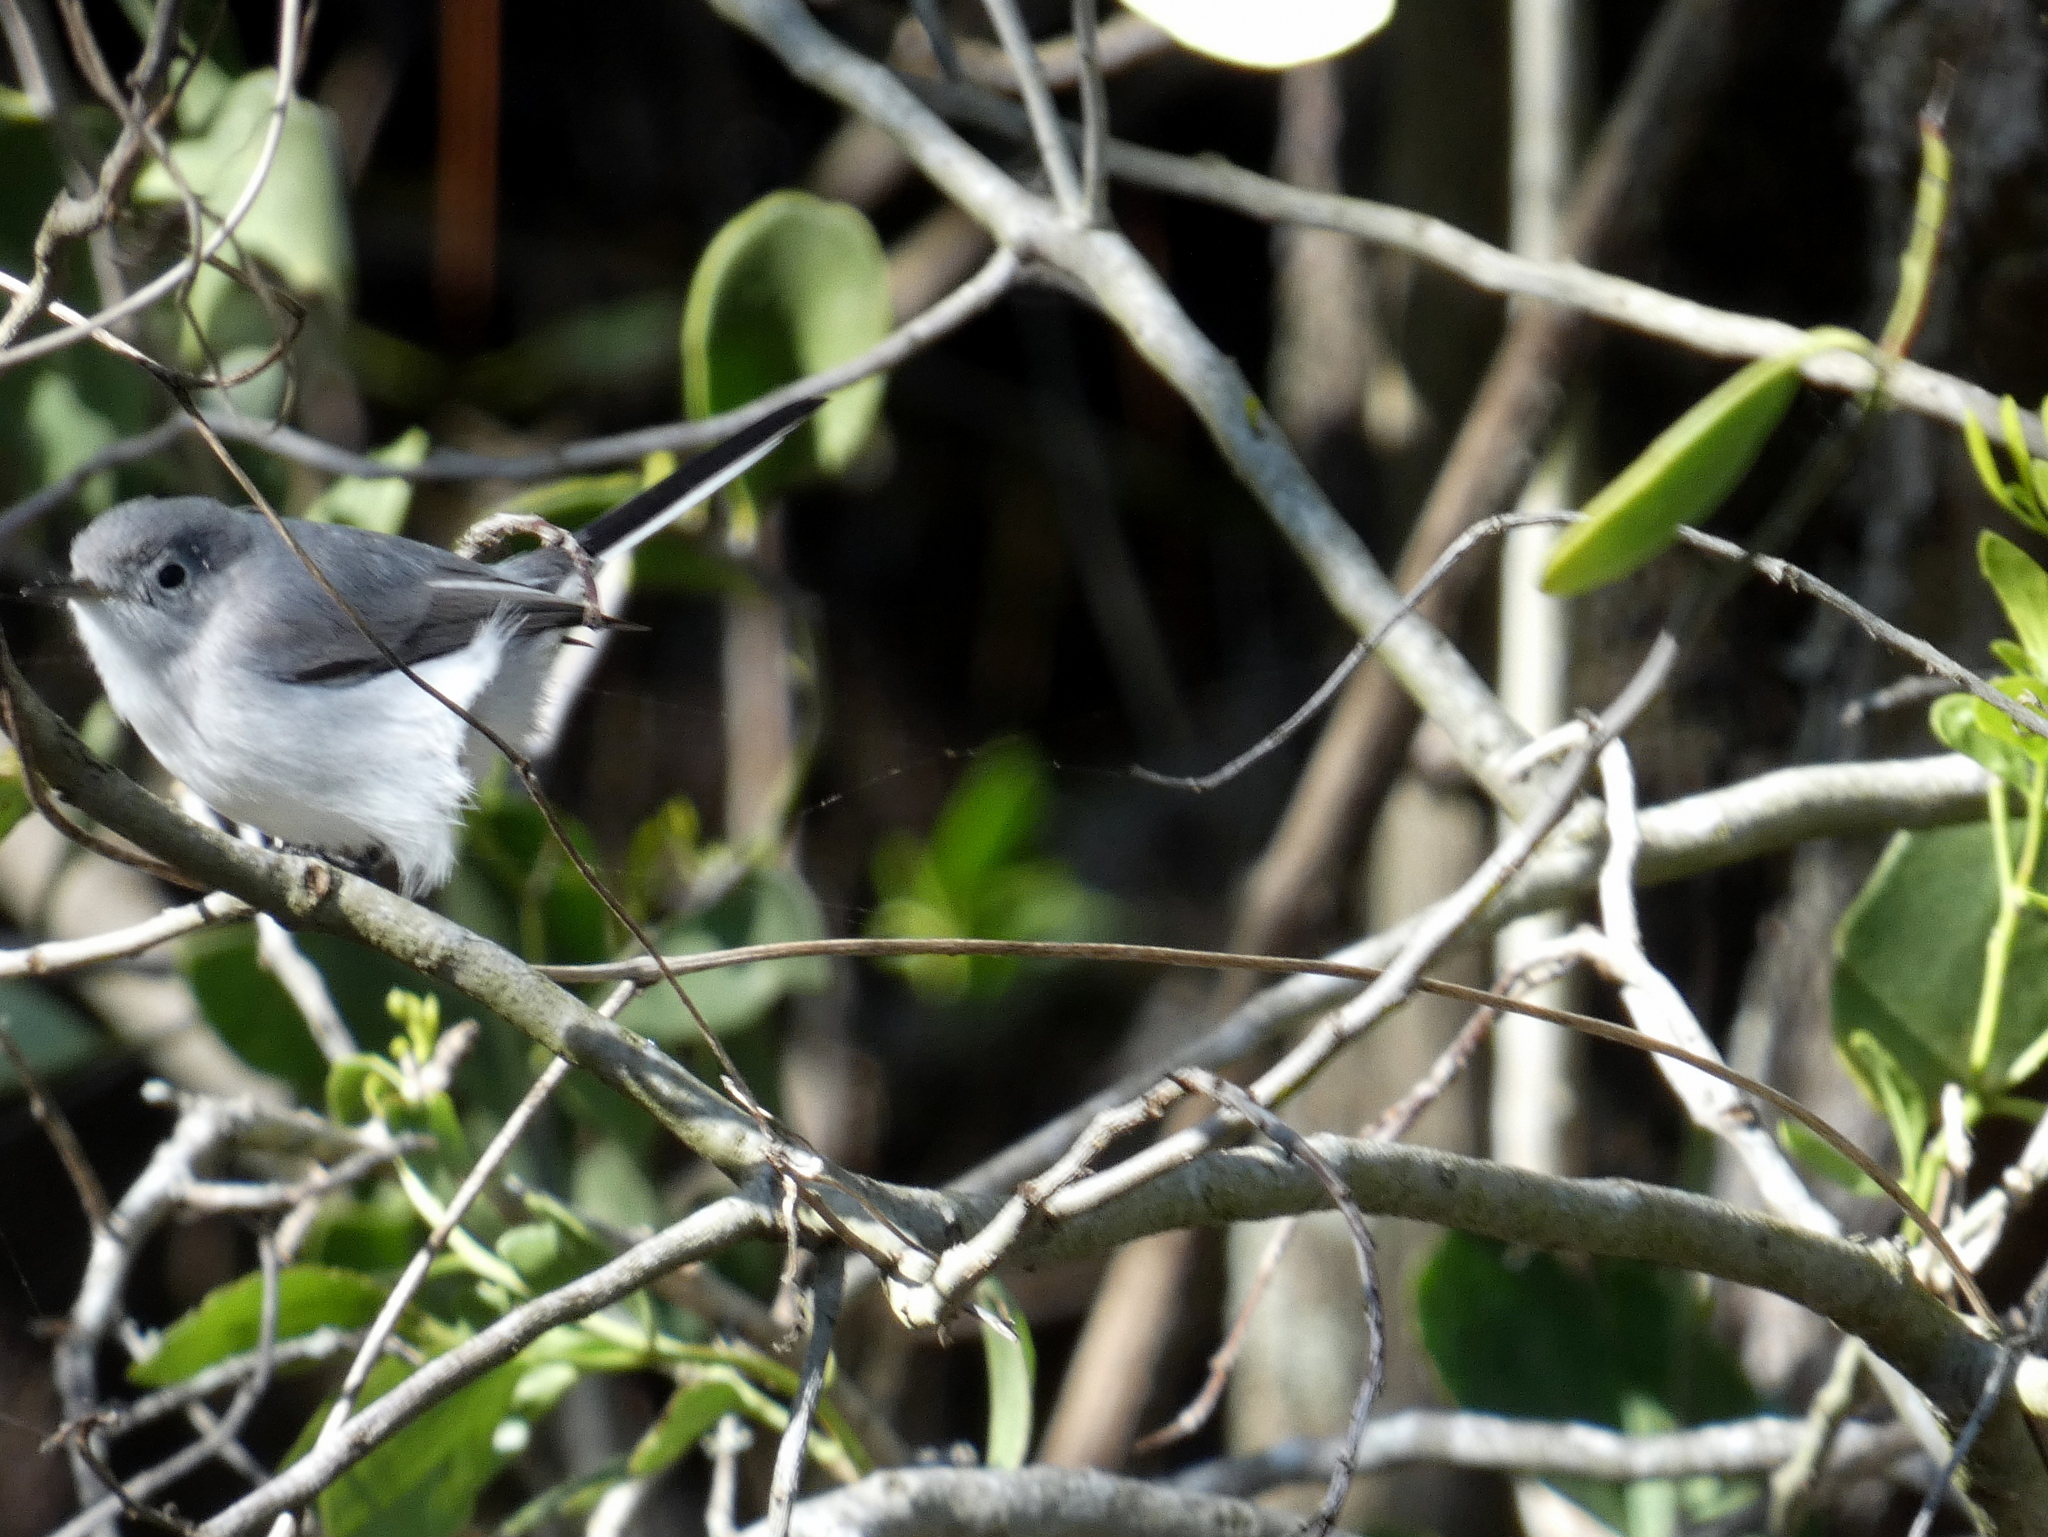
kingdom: Animalia
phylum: Chordata
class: Aves
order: Passeriformes
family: Polioptilidae
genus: Polioptila
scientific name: Polioptila caerulea
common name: Blue-gray gnatcatcher
